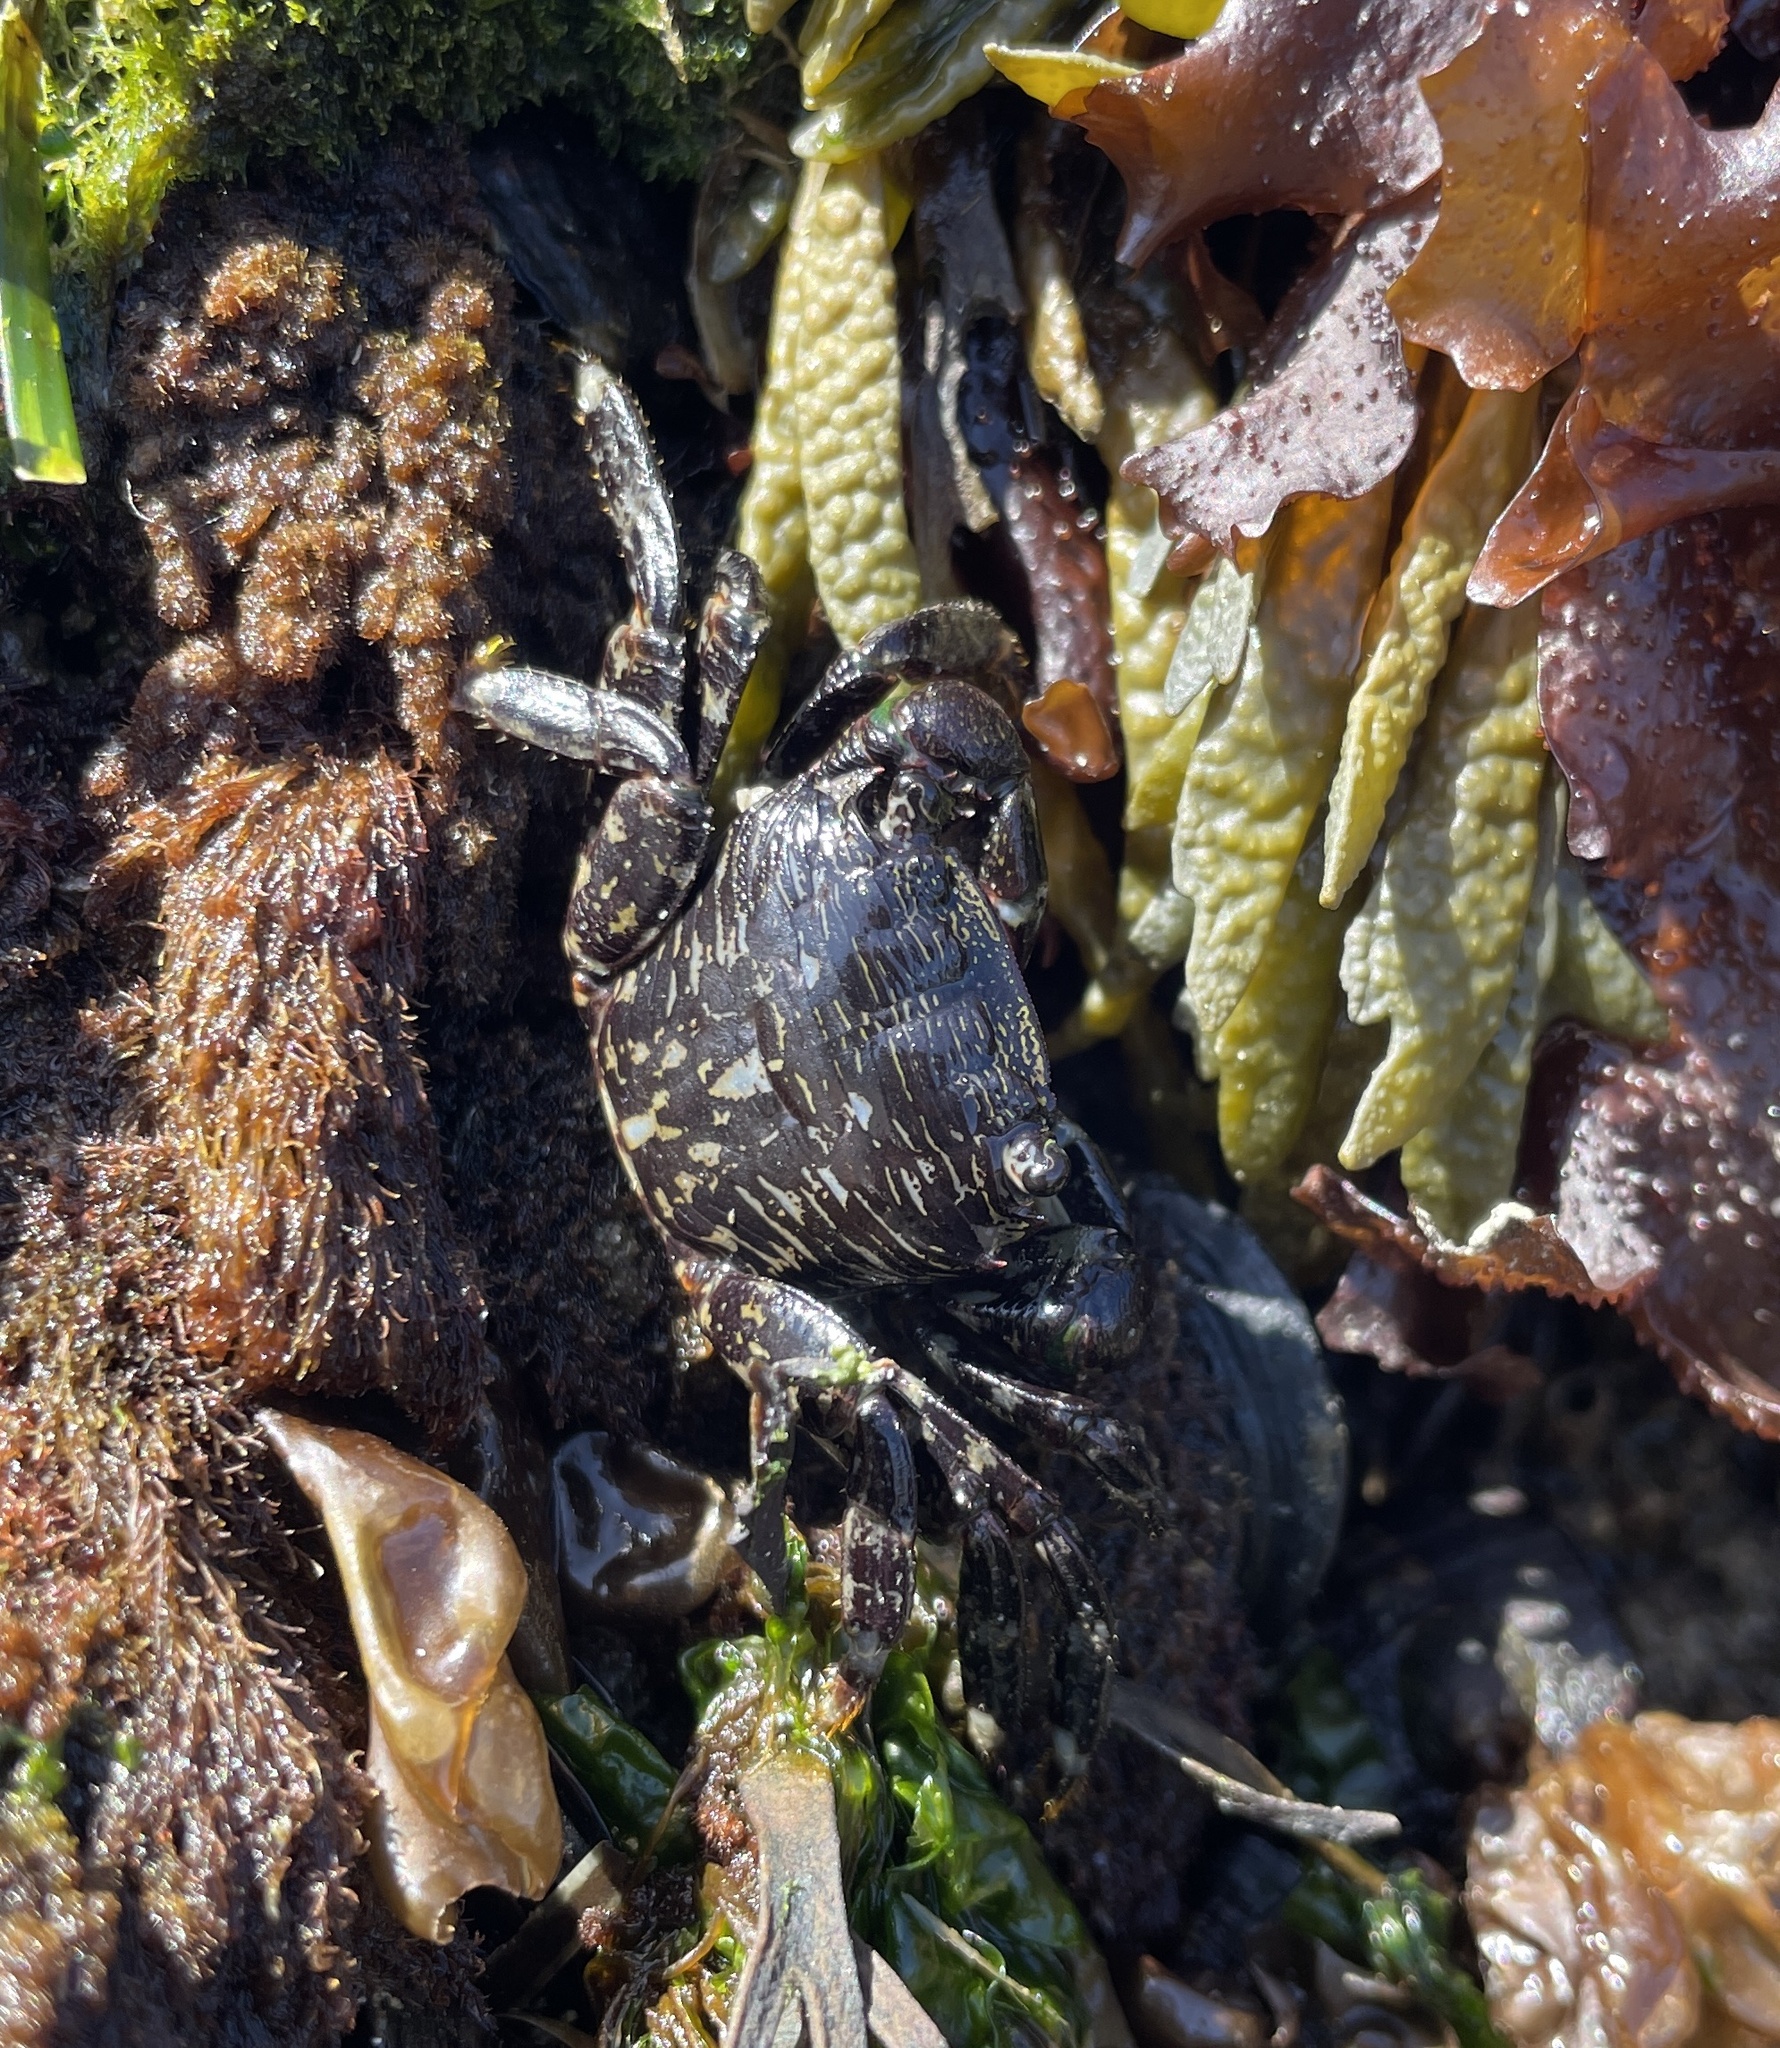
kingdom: Animalia
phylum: Arthropoda
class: Malacostraca
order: Decapoda
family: Grapsidae
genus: Pachygrapsus
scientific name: Pachygrapsus crassipes
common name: Striped shore crab
